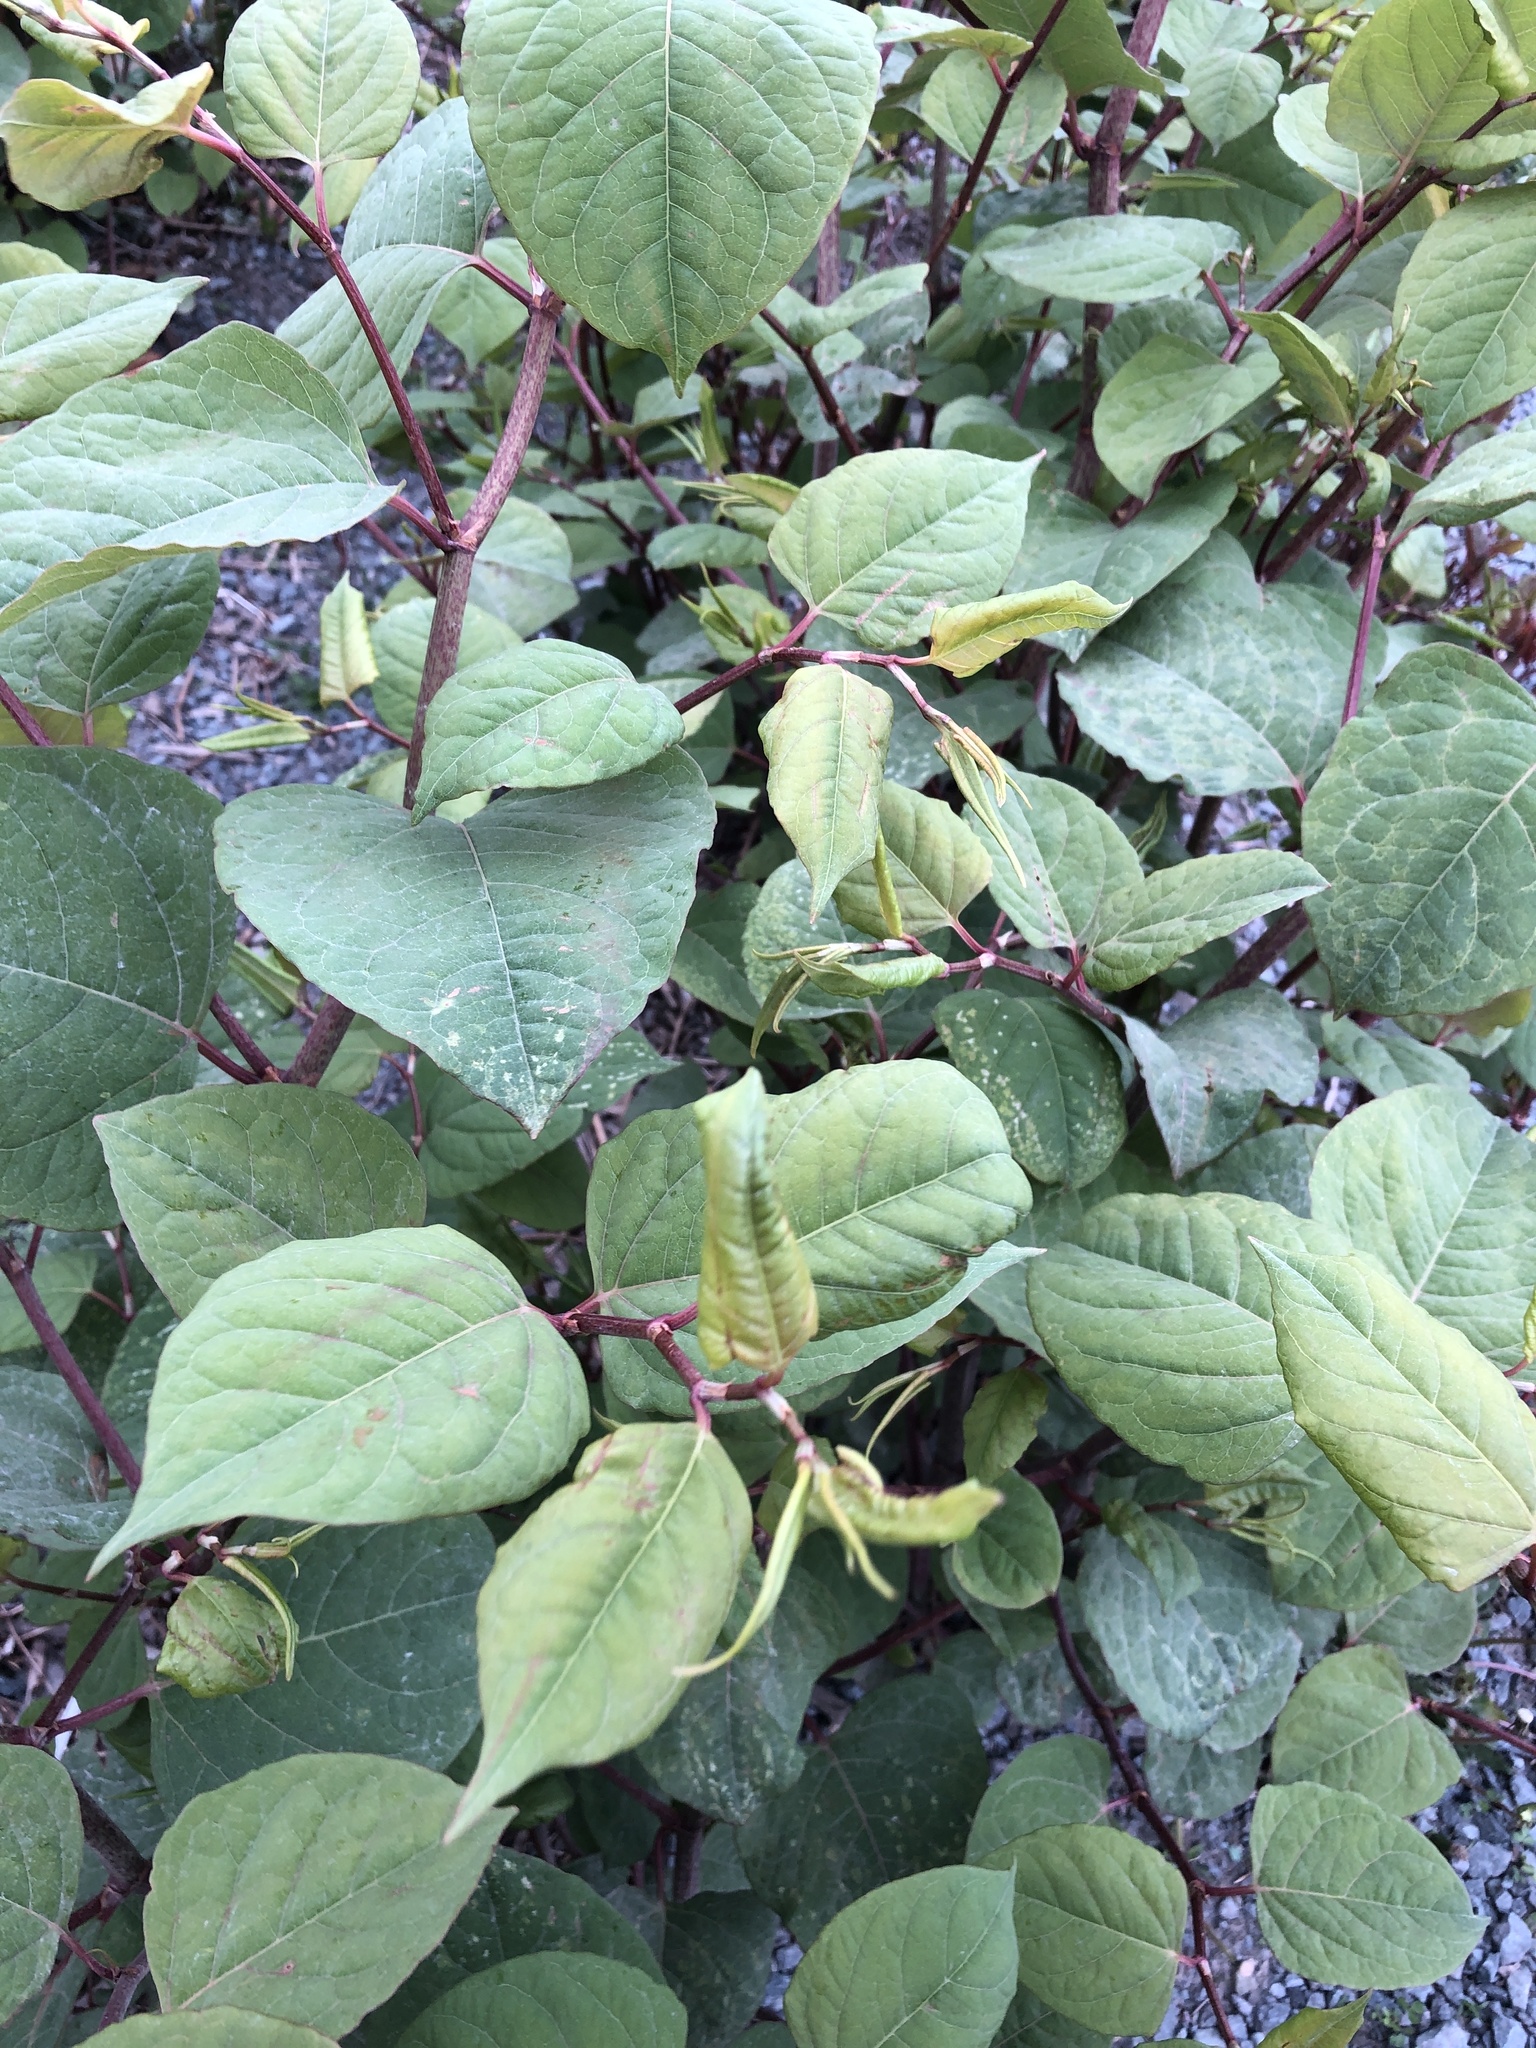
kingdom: Plantae
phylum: Tracheophyta
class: Magnoliopsida
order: Caryophyllales
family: Polygonaceae
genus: Reynoutria
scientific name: Reynoutria japonica
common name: Japanese knotweed
